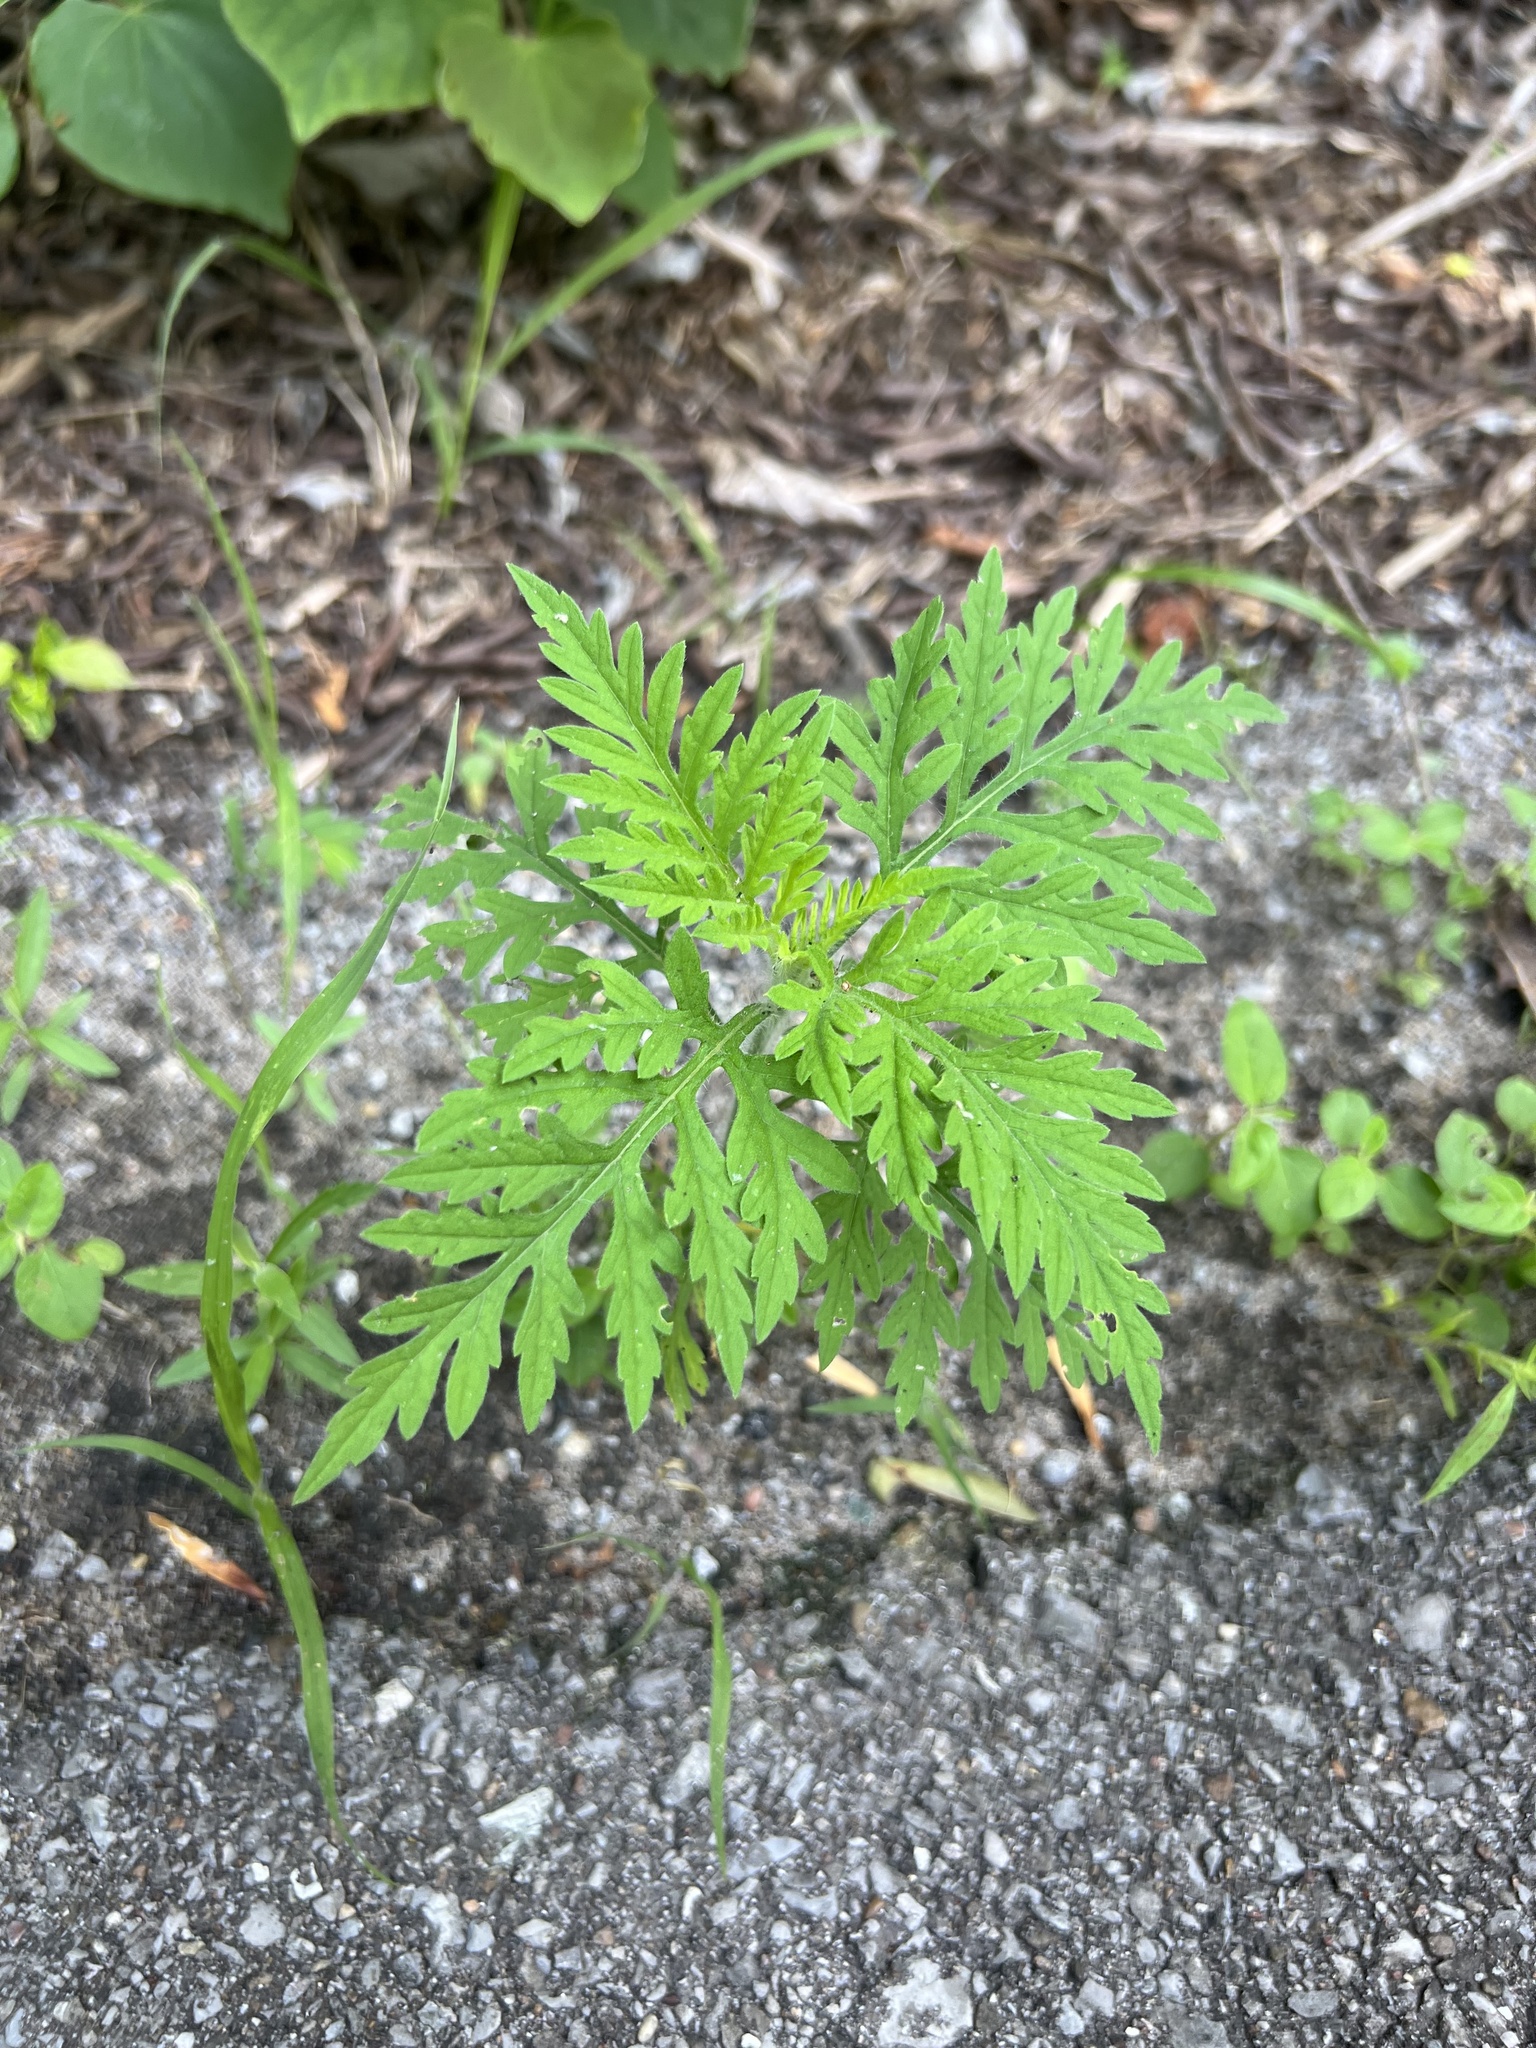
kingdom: Plantae
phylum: Tracheophyta
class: Magnoliopsida
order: Asterales
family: Asteraceae
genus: Ambrosia
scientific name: Ambrosia artemisiifolia
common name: Annual ragweed
